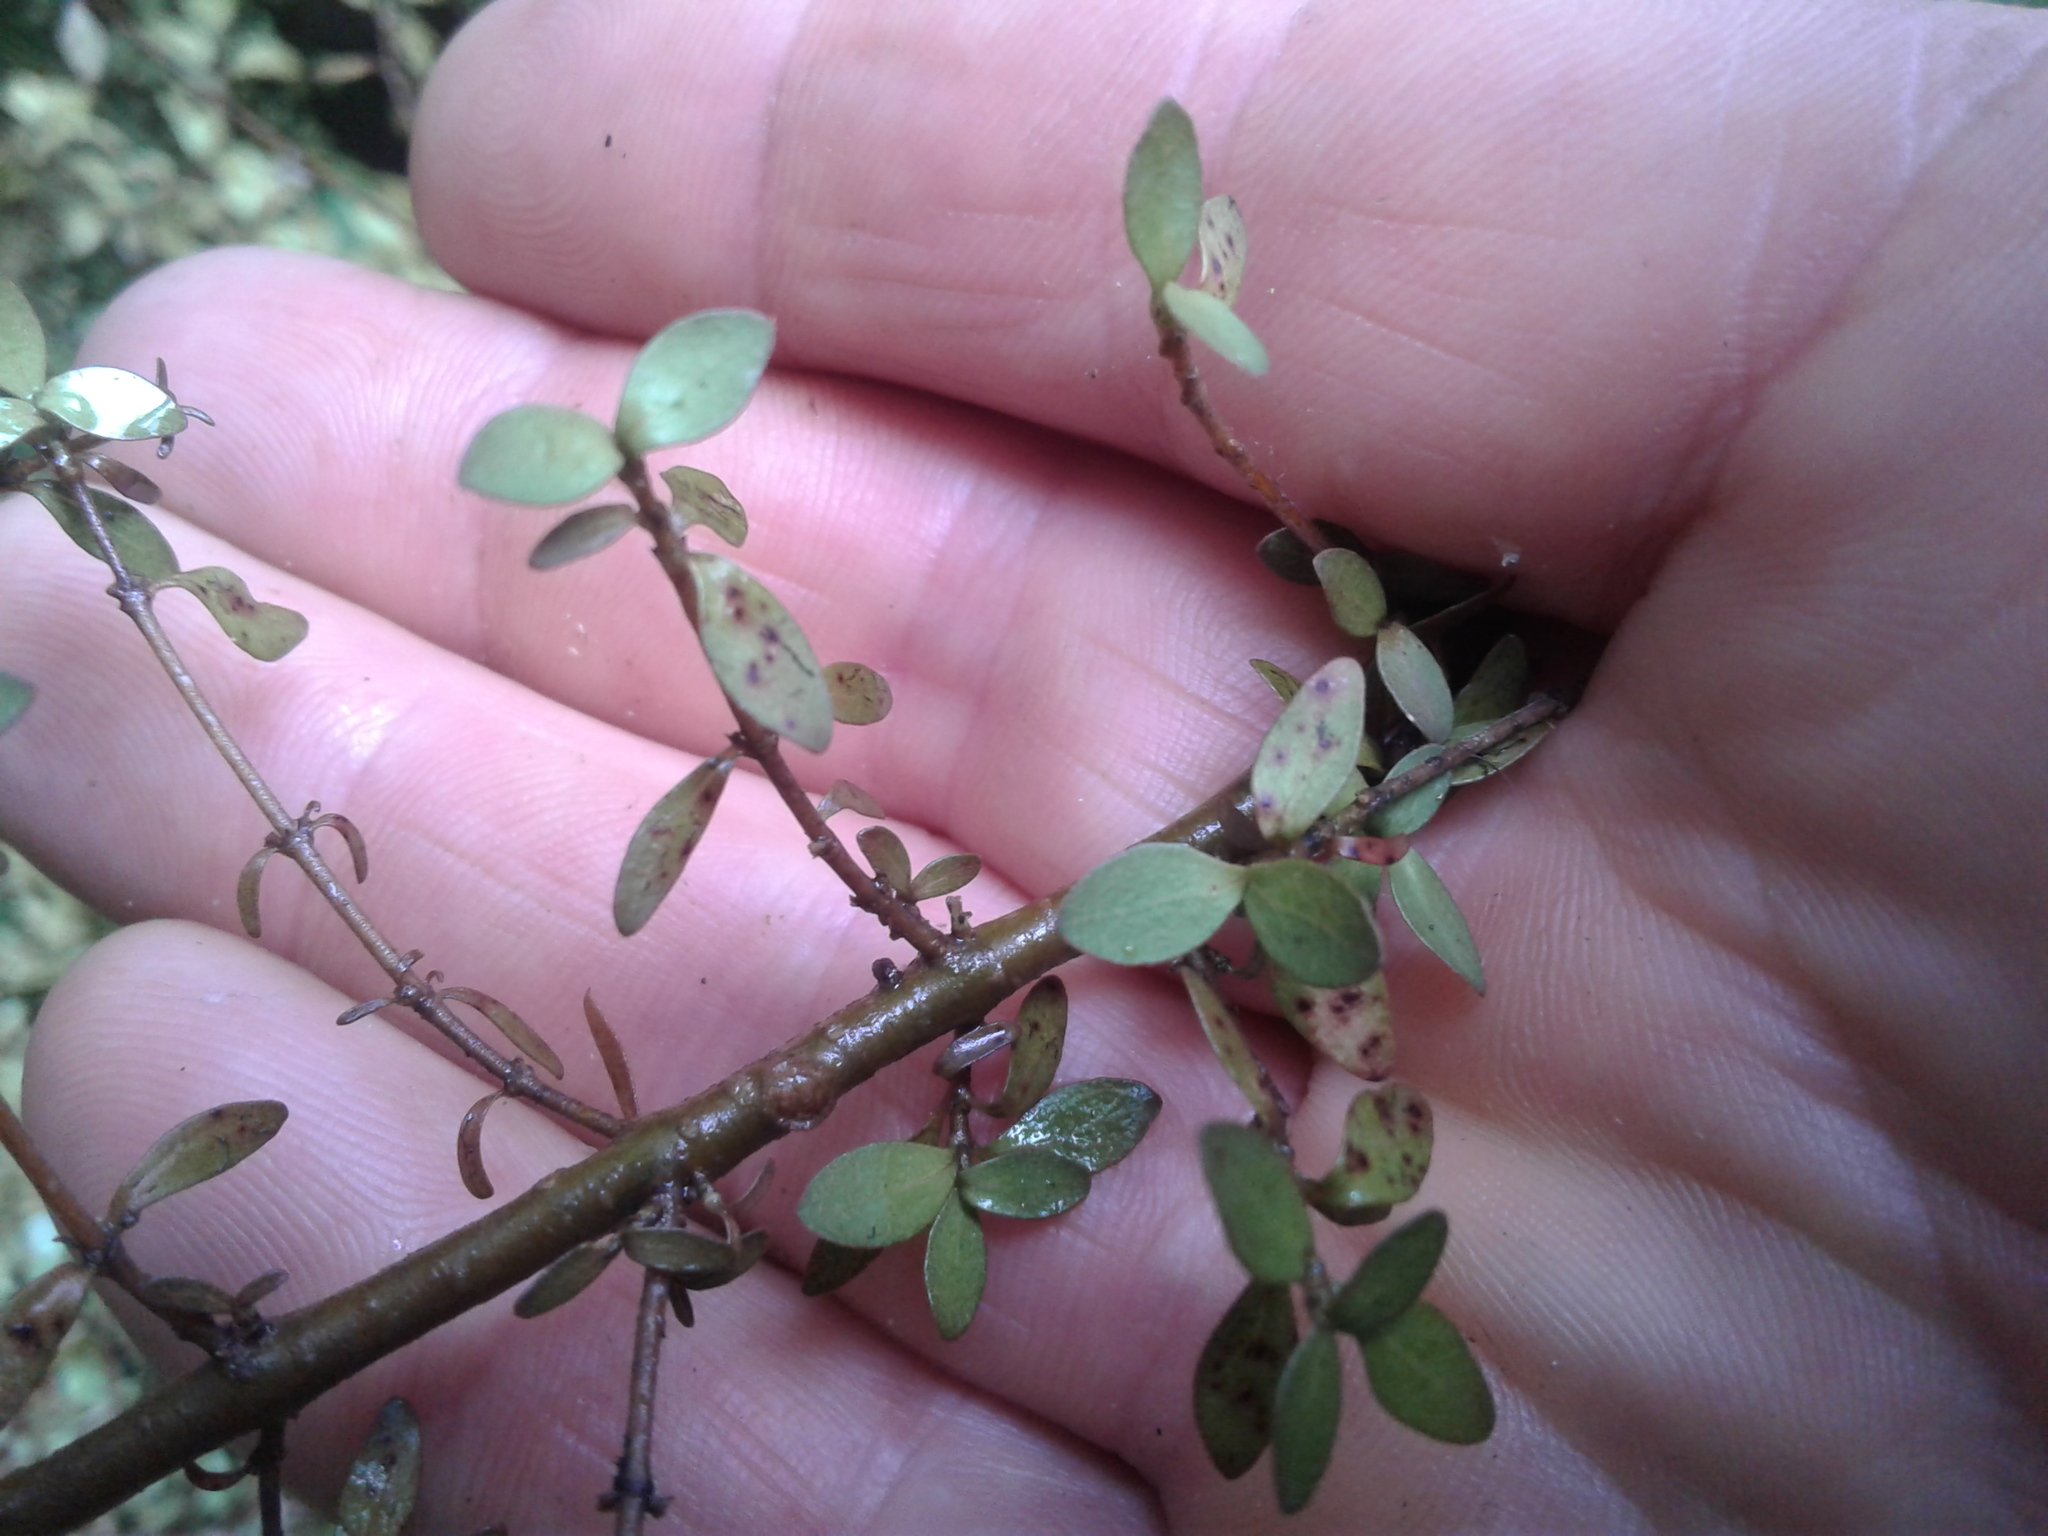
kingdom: Plantae
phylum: Tracheophyta
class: Magnoliopsida
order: Gentianales
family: Rubiaceae
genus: Coprosma
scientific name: Coprosma rhamnoides
